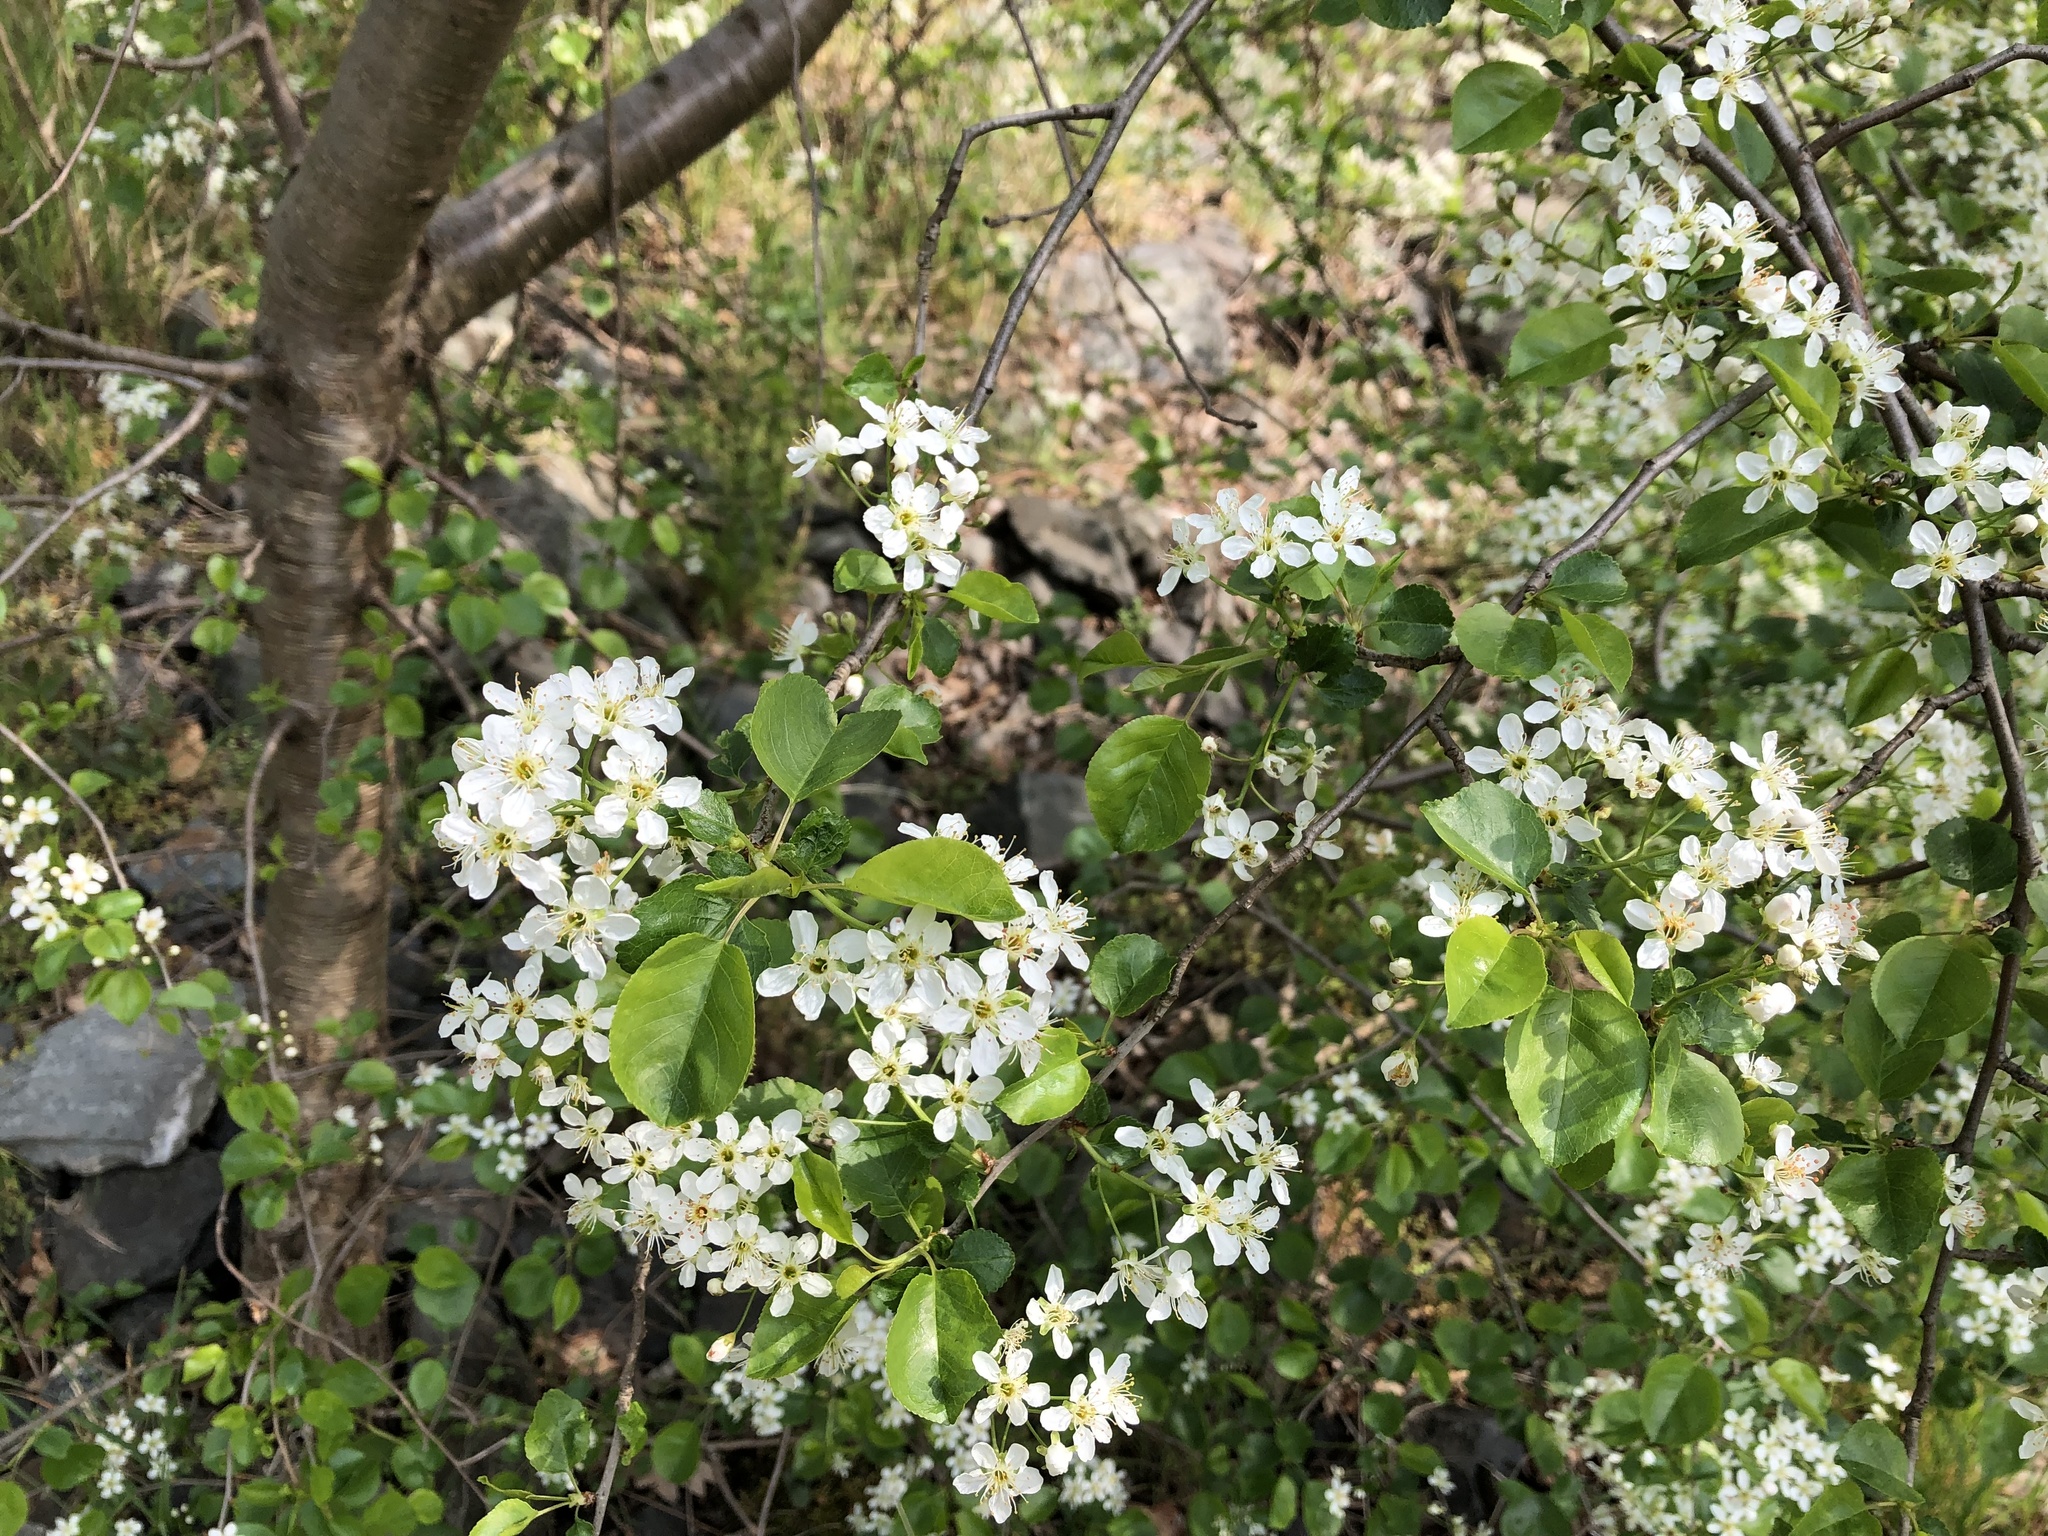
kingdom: Plantae
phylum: Tracheophyta
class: Magnoliopsida
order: Rosales
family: Rosaceae
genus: Prunus
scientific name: Prunus mahaleb
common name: Mahaleb cherry
